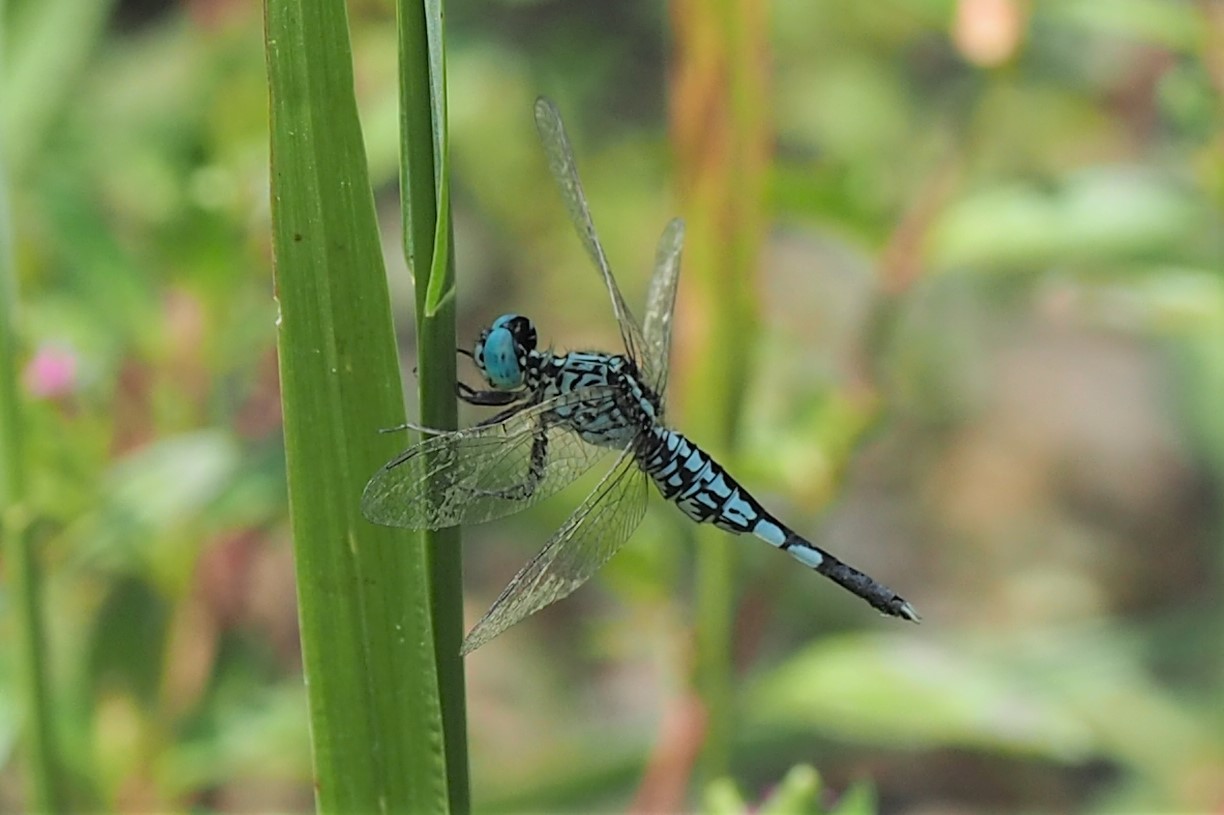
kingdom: Animalia
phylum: Arthropoda
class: Insecta
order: Odonata
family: Libellulidae
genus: Acisoma
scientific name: Acisoma panorpoides
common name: Asian pintail
